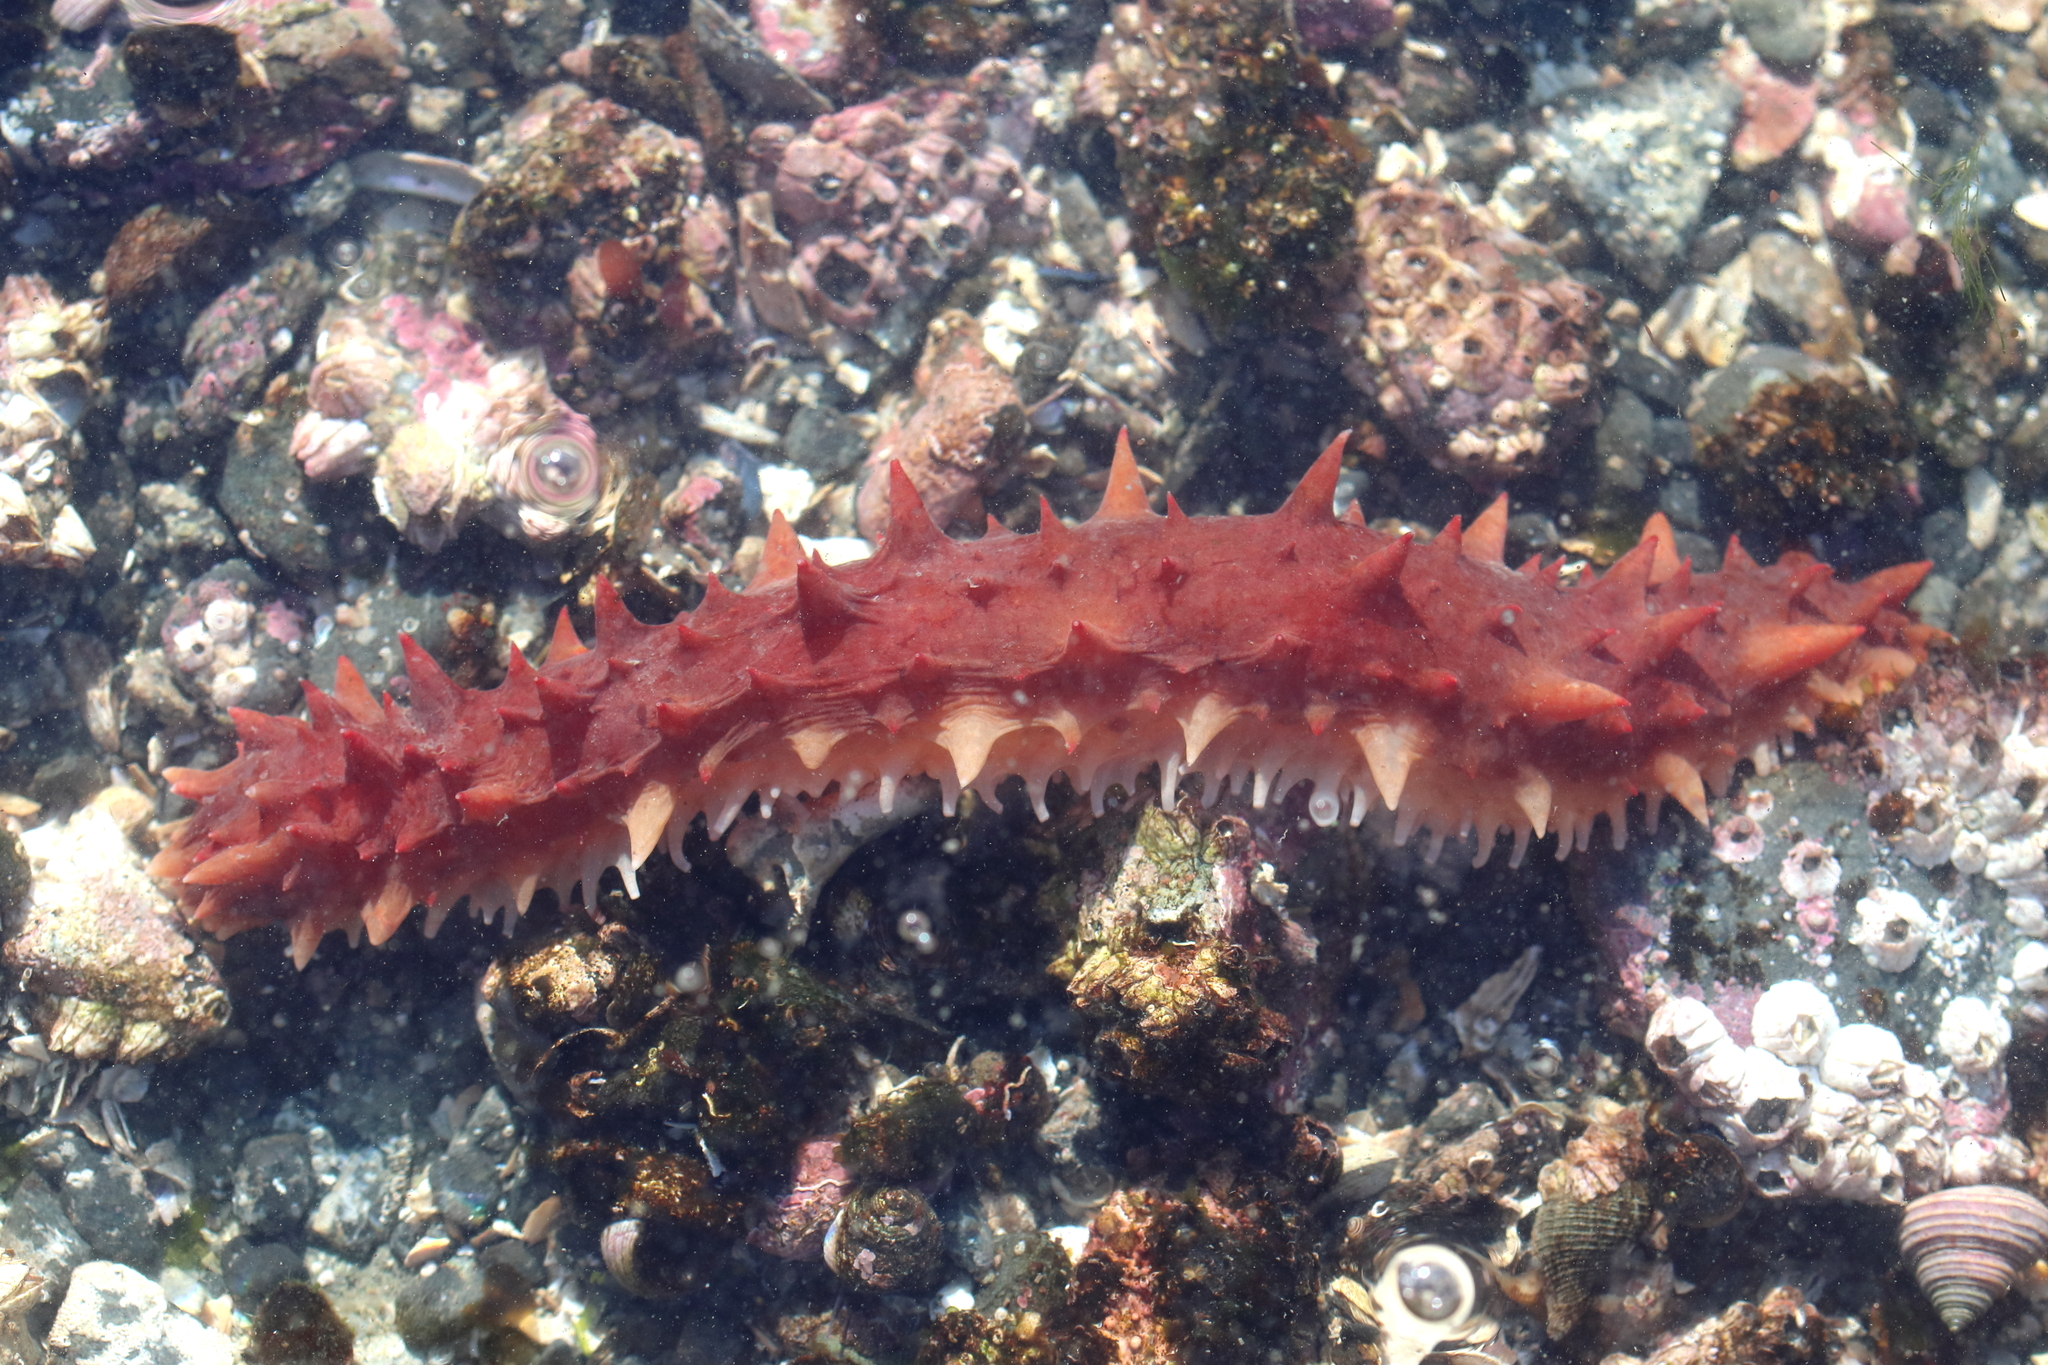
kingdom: Animalia
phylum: Echinodermata
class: Holothuroidea
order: Synallactida
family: Stichopodidae
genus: Apostichopus
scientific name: Apostichopus californicus
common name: California sea cucumber
